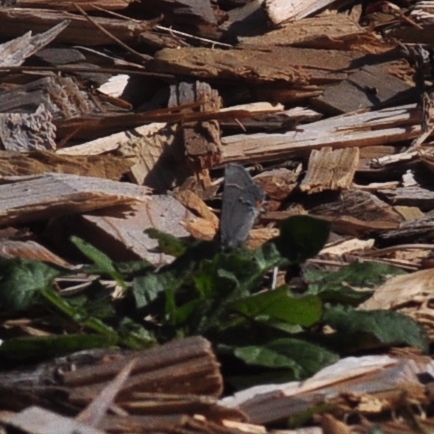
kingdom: Animalia
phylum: Arthropoda
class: Insecta
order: Lepidoptera
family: Lycaenidae
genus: Strymon
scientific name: Strymon melinus
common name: Gray hairstreak
